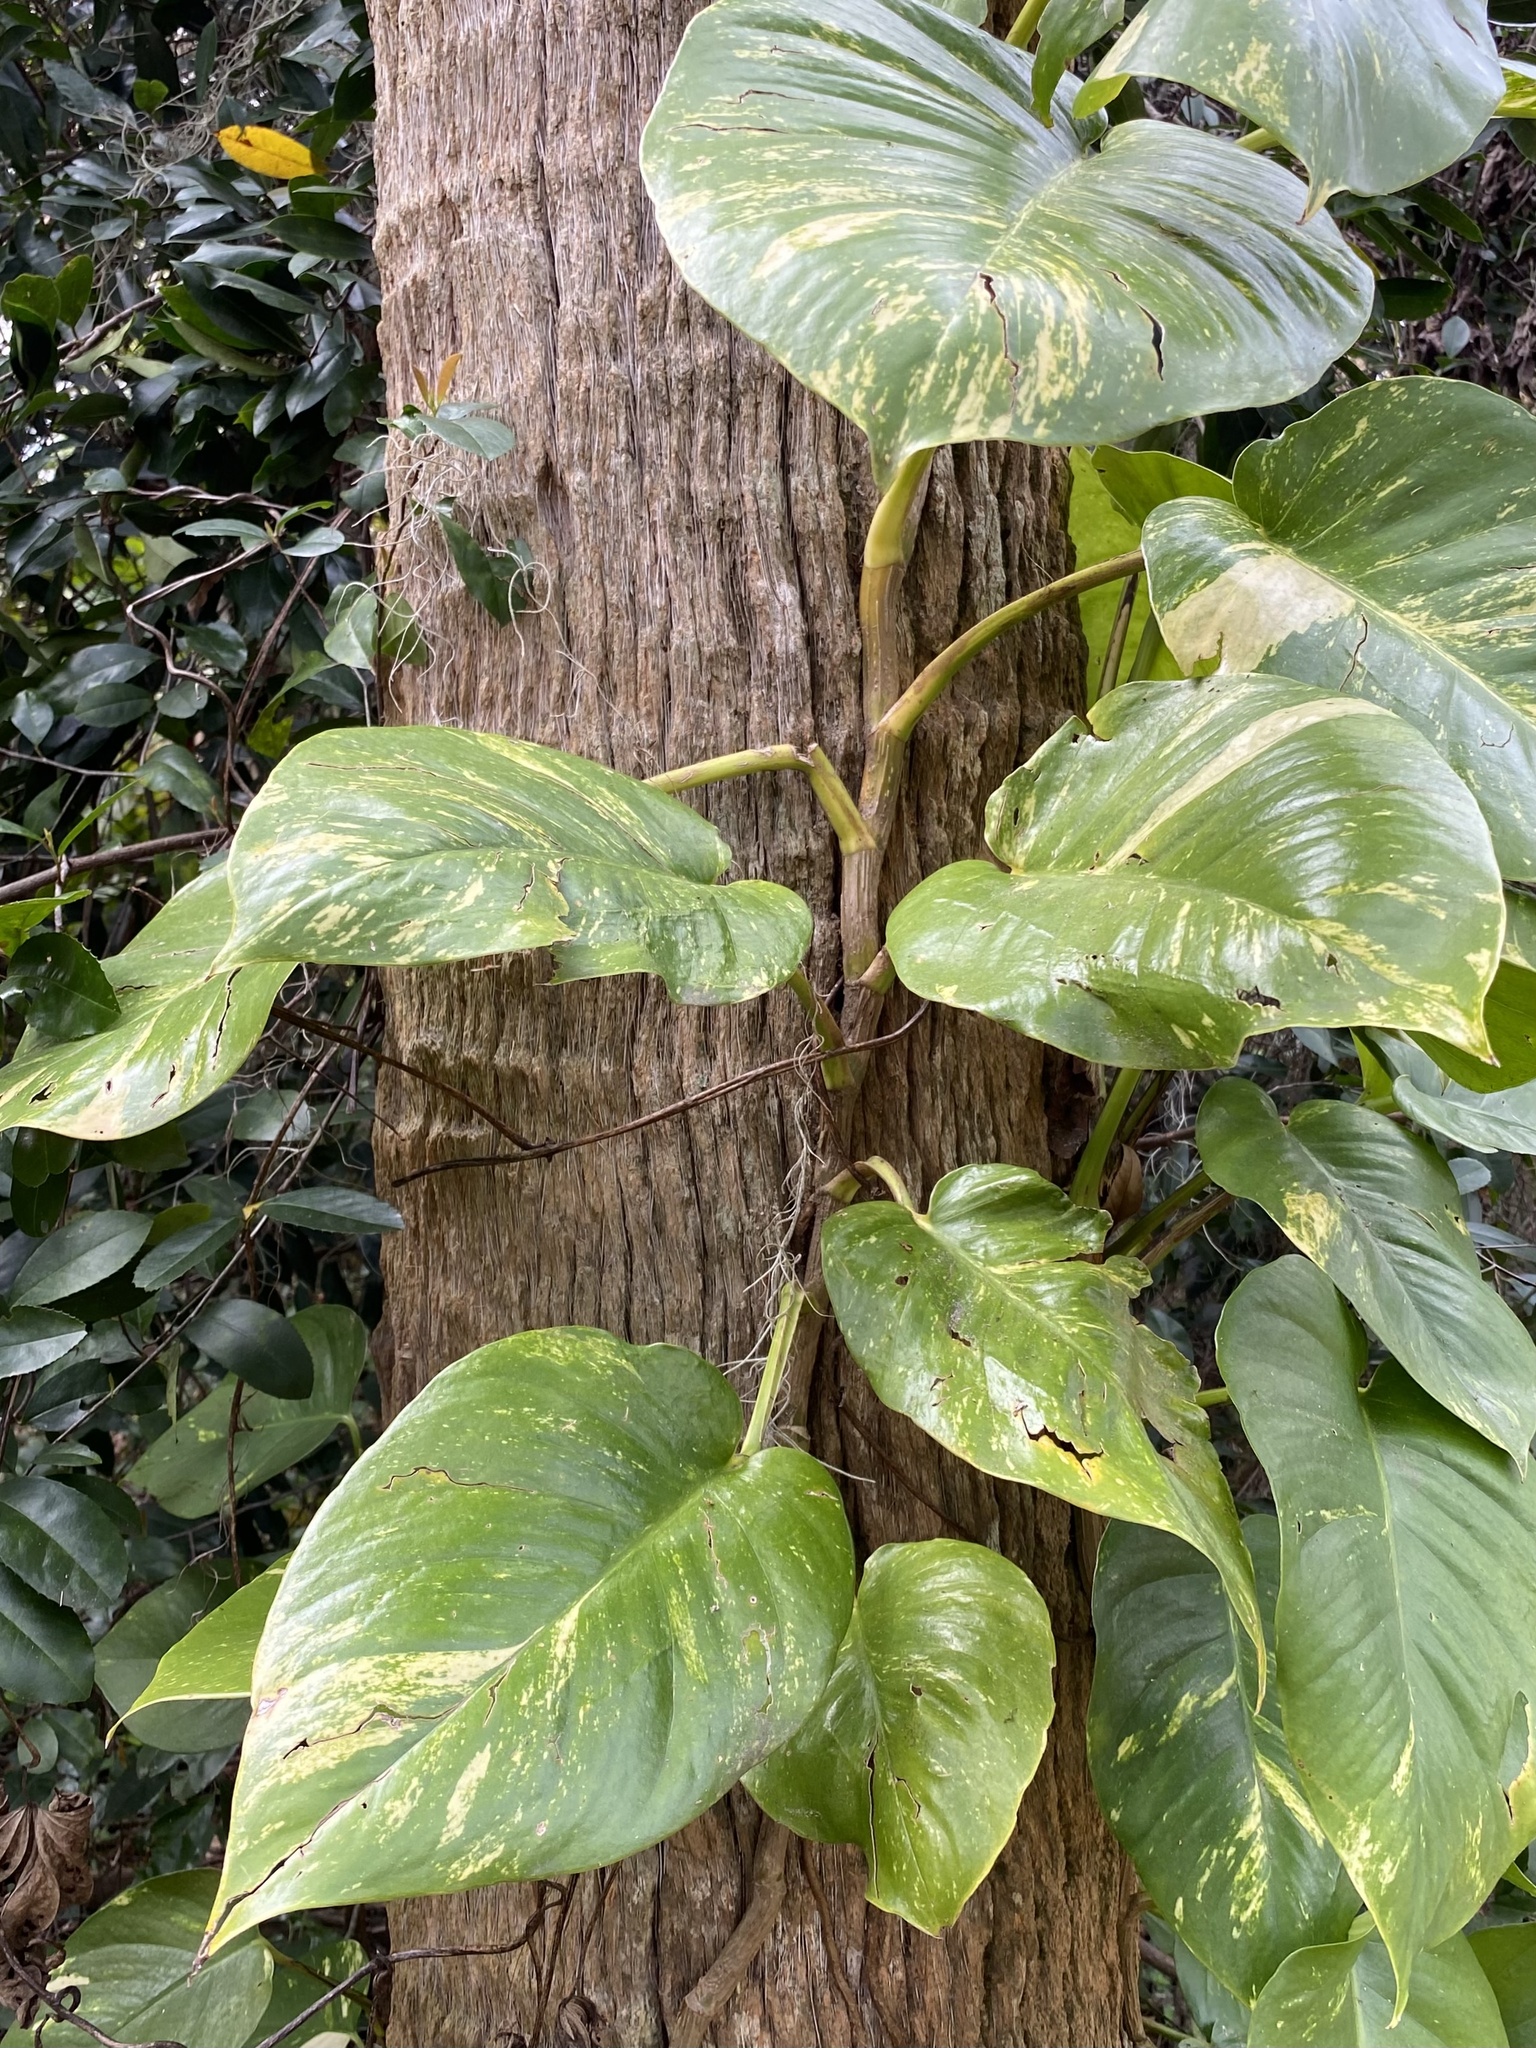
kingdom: Plantae
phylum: Tracheophyta
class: Liliopsida
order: Alismatales
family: Araceae
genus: Epipremnum
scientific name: Epipremnum aureum
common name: Golden hunter's-robe
